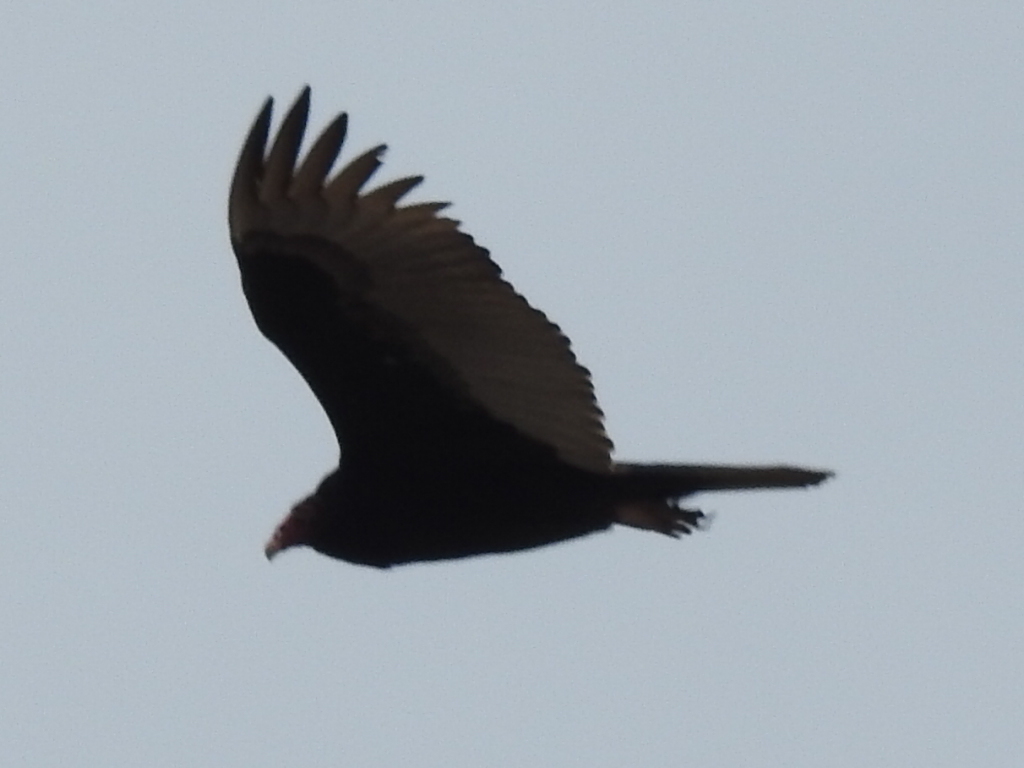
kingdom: Animalia
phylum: Chordata
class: Aves
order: Accipitriformes
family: Cathartidae
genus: Cathartes
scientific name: Cathartes aura
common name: Turkey vulture
